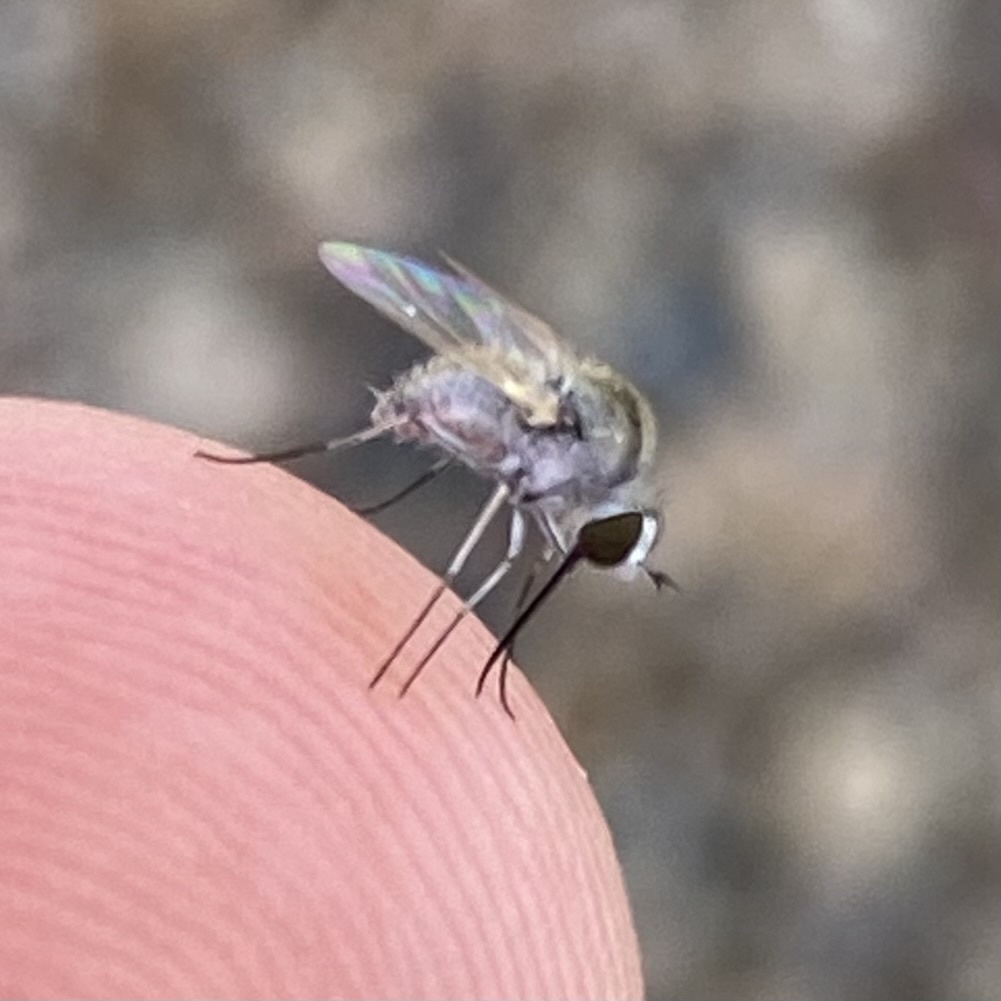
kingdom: Animalia
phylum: Arthropoda
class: Insecta
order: Diptera
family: Bombyliidae
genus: Geron
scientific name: Geron
